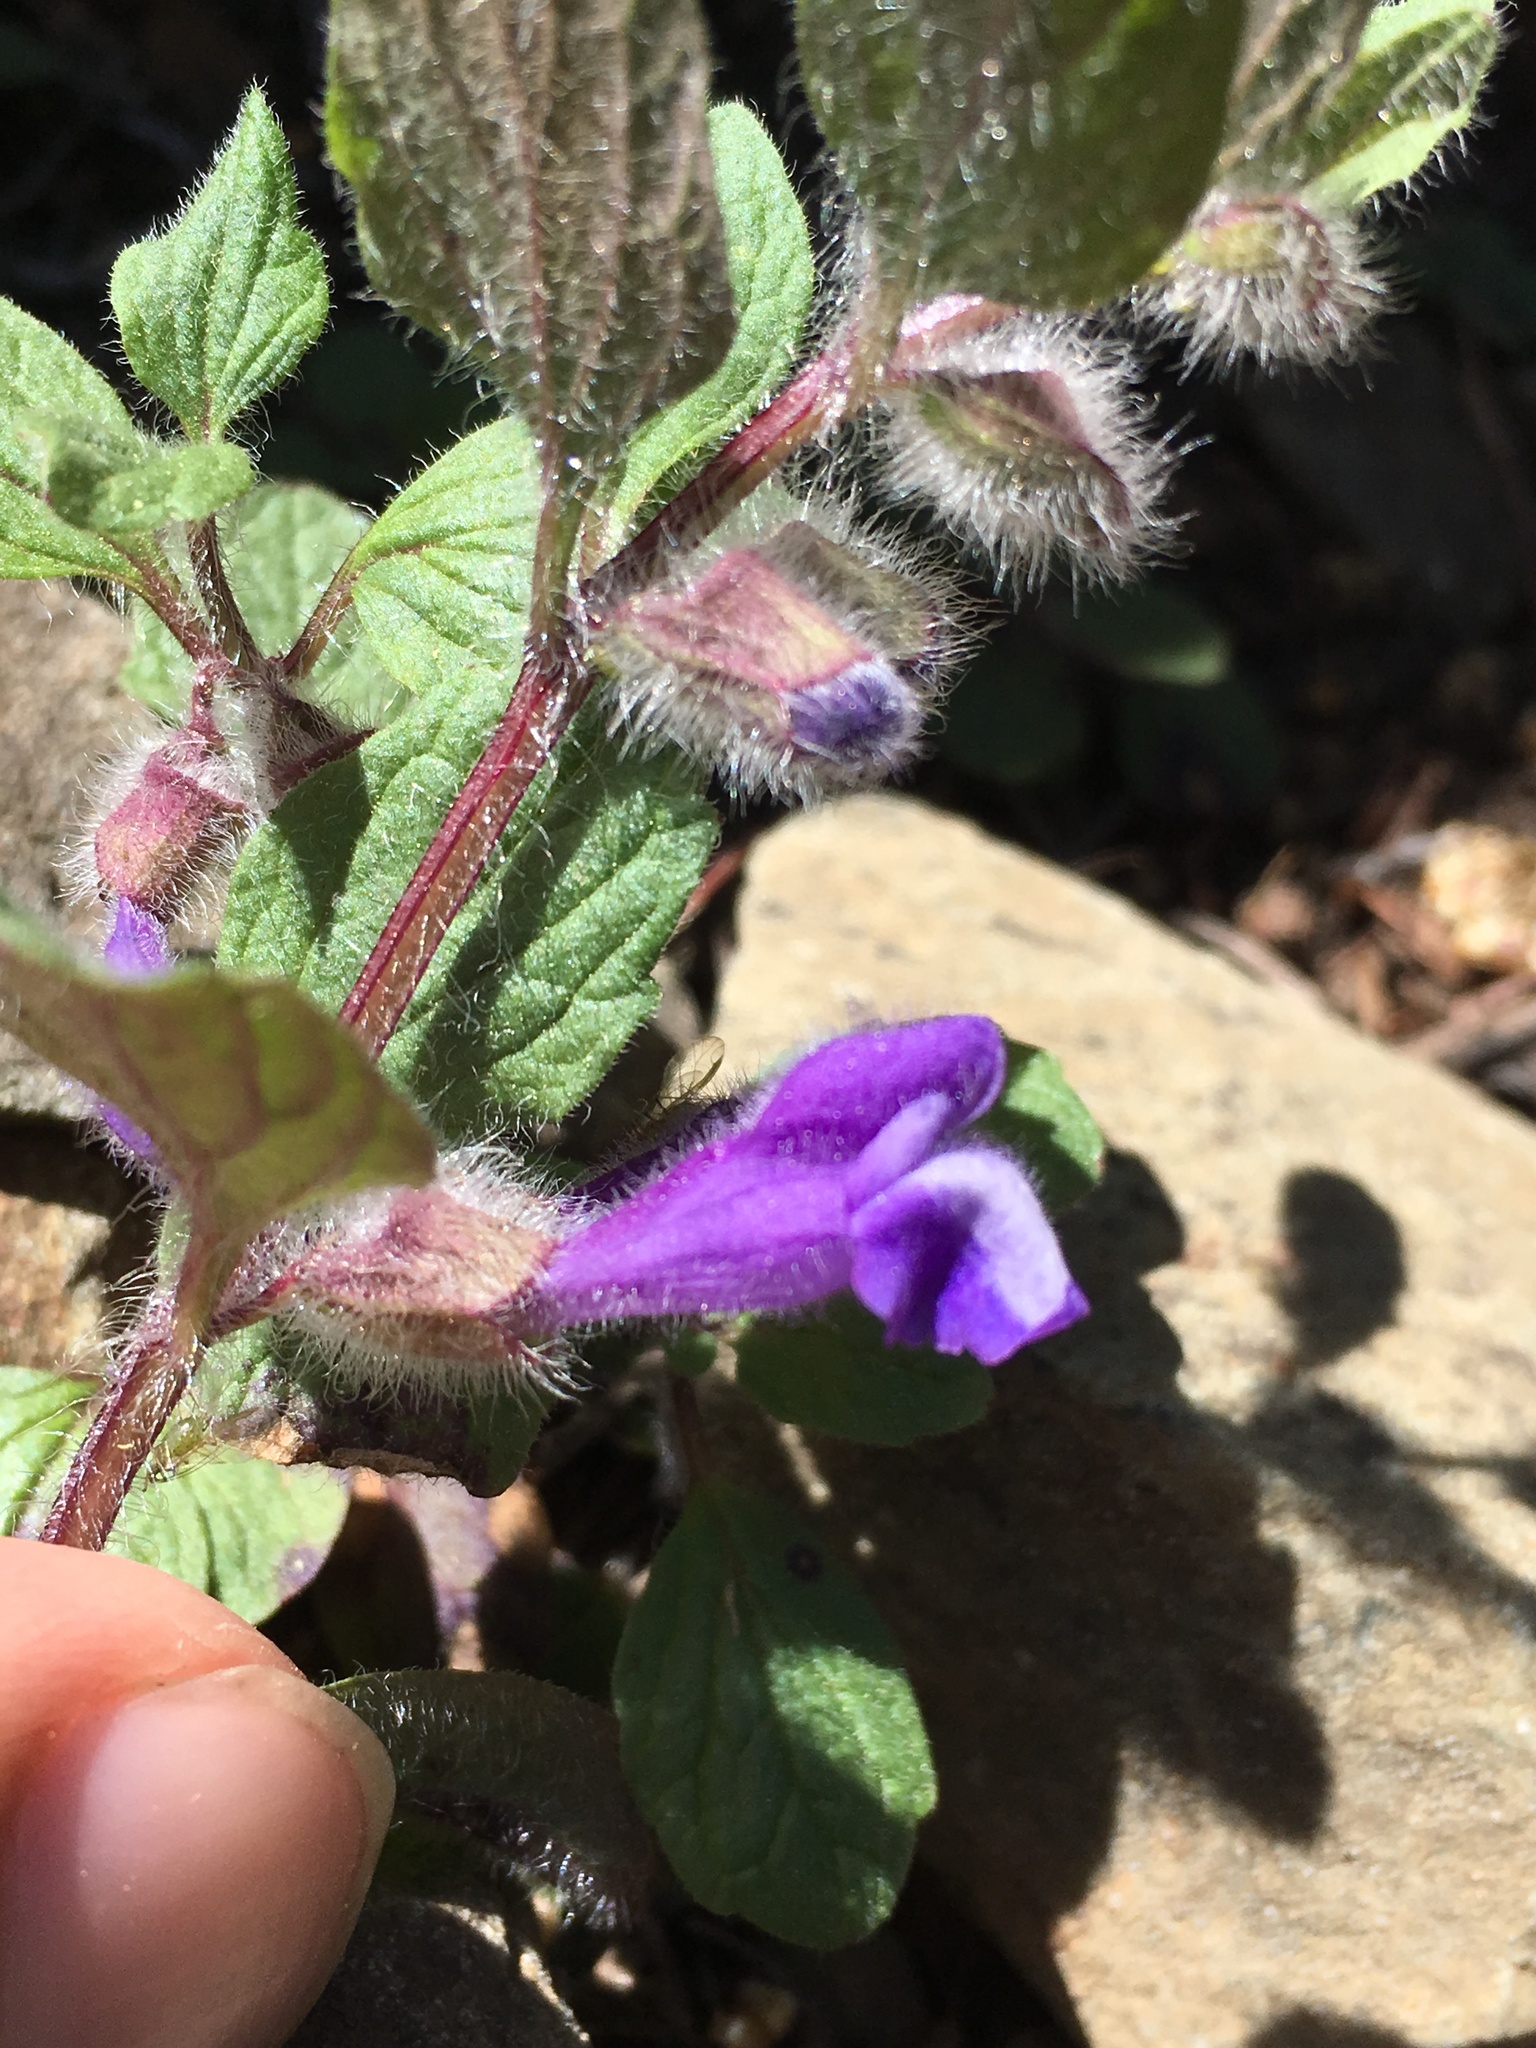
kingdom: Plantae
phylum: Tracheophyta
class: Magnoliopsida
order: Lamiales
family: Lamiaceae
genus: Scutellaria
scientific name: Scutellaria tuberosa
